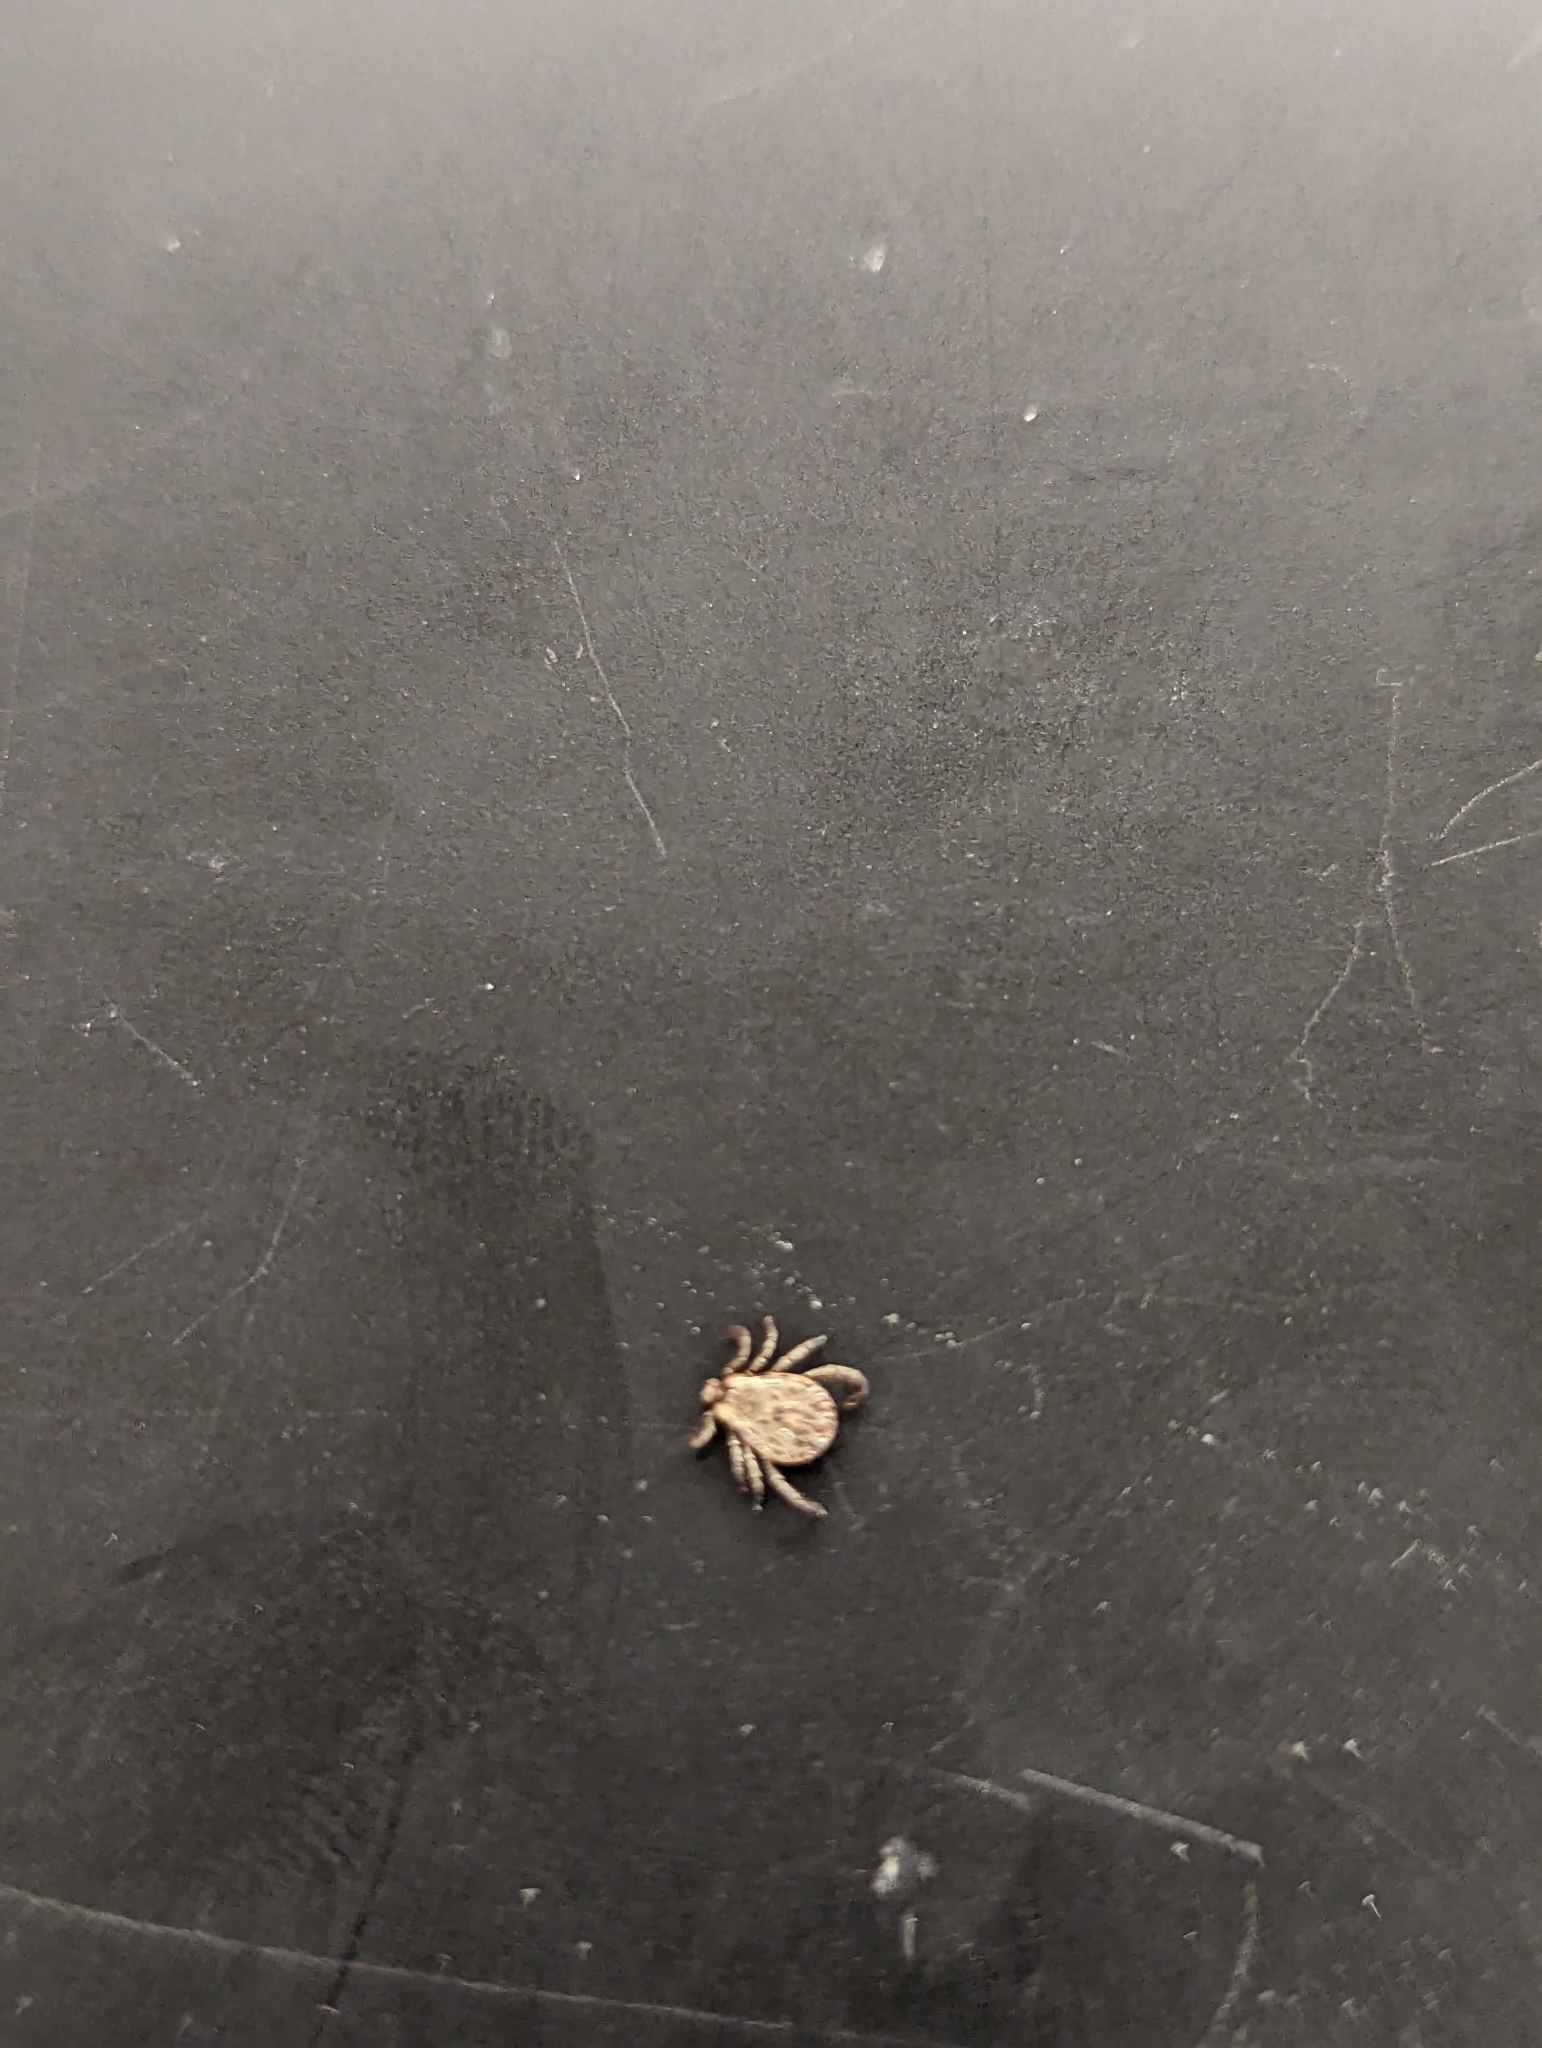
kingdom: Animalia
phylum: Arthropoda
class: Arachnida
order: Ixodida
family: Ixodidae
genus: Dermacentor
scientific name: Dermacentor occidentalis
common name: Net tick
